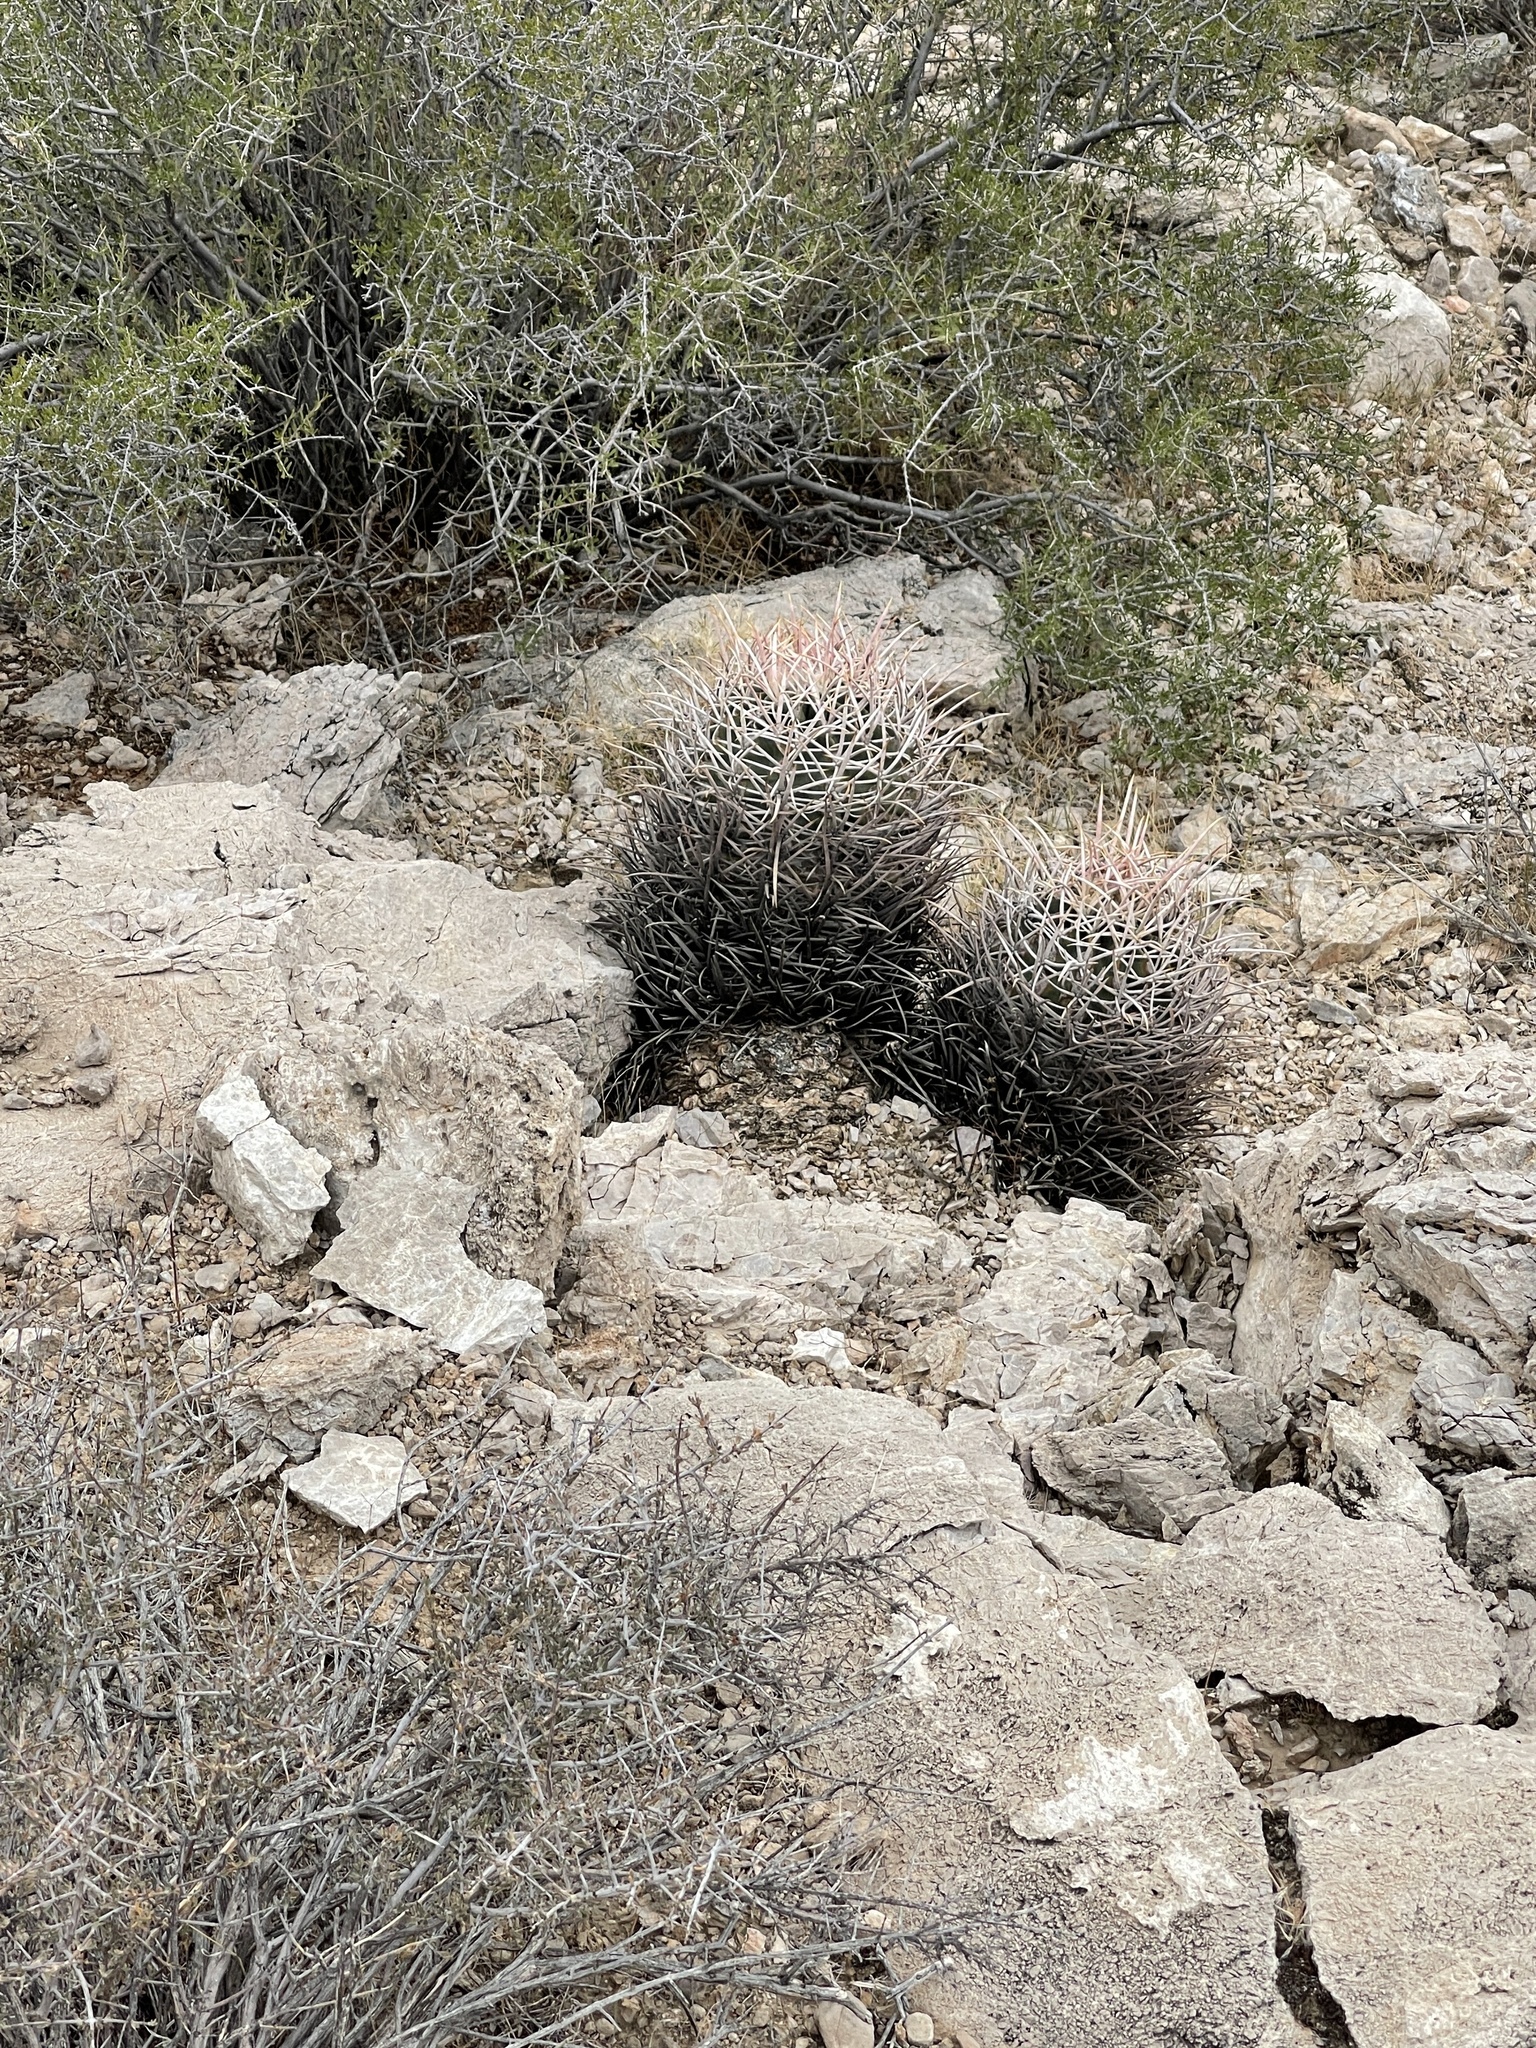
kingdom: Plantae
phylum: Tracheophyta
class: Magnoliopsida
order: Caryophyllales
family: Cactaceae
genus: Echinocactus
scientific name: Echinocactus polycephalus
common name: Cottontop cactus
